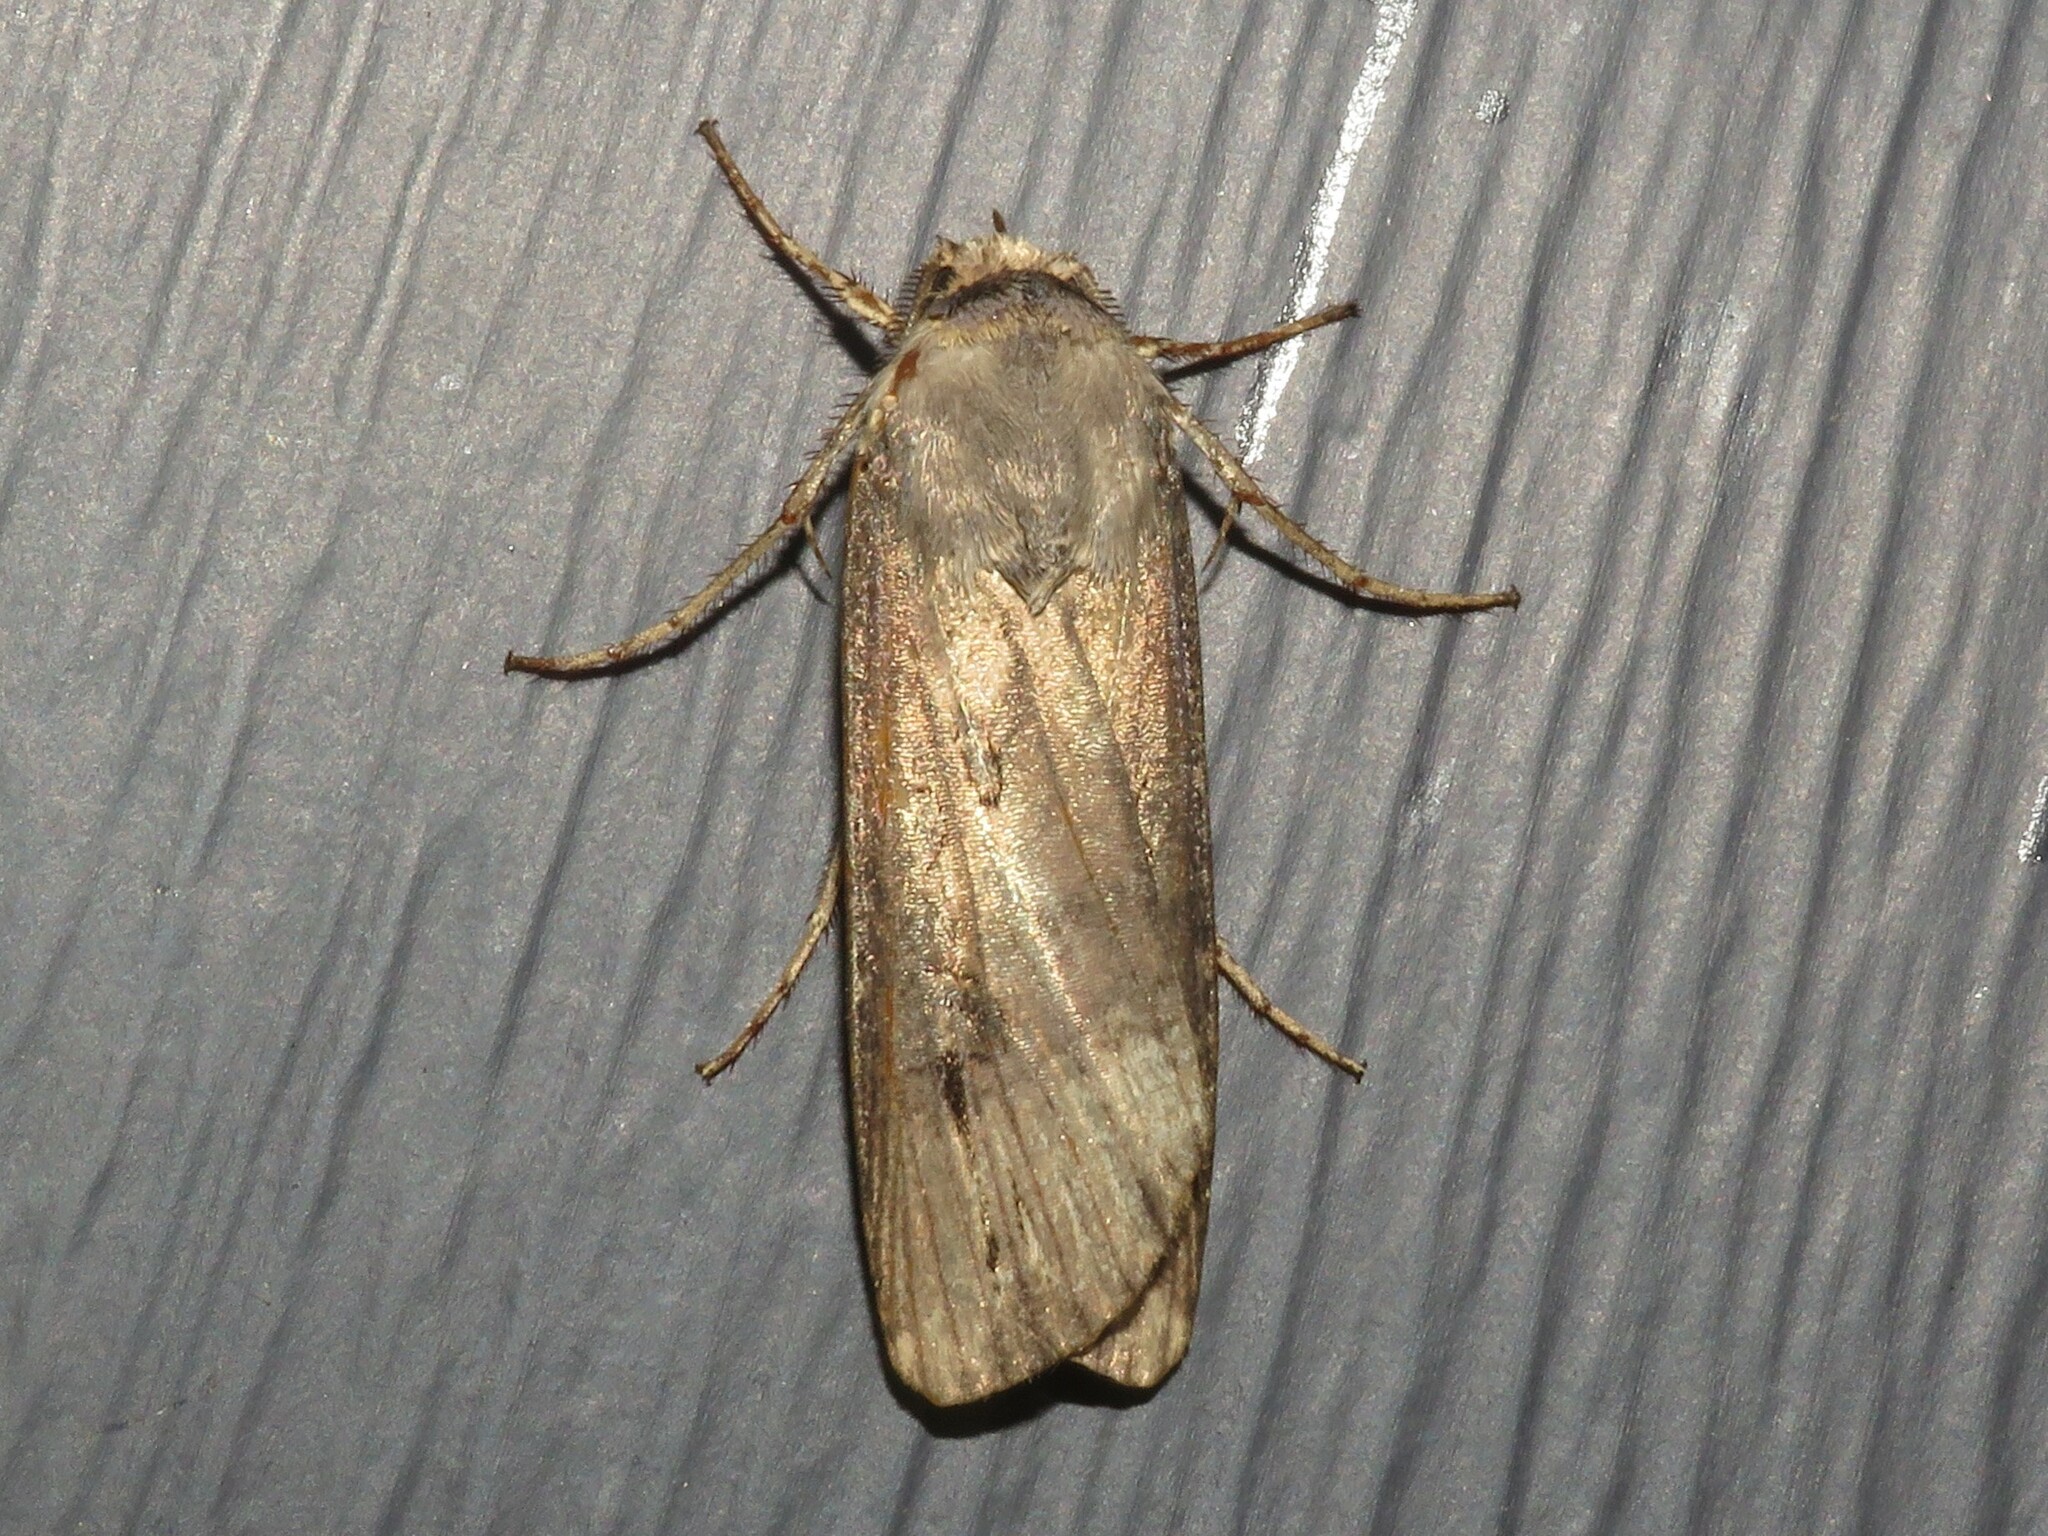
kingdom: Animalia
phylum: Arthropoda
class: Insecta
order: Lepidoptera
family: Noctuidae
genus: Agrotis
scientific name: Agrotis ipsilon
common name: Dark sword-grass
